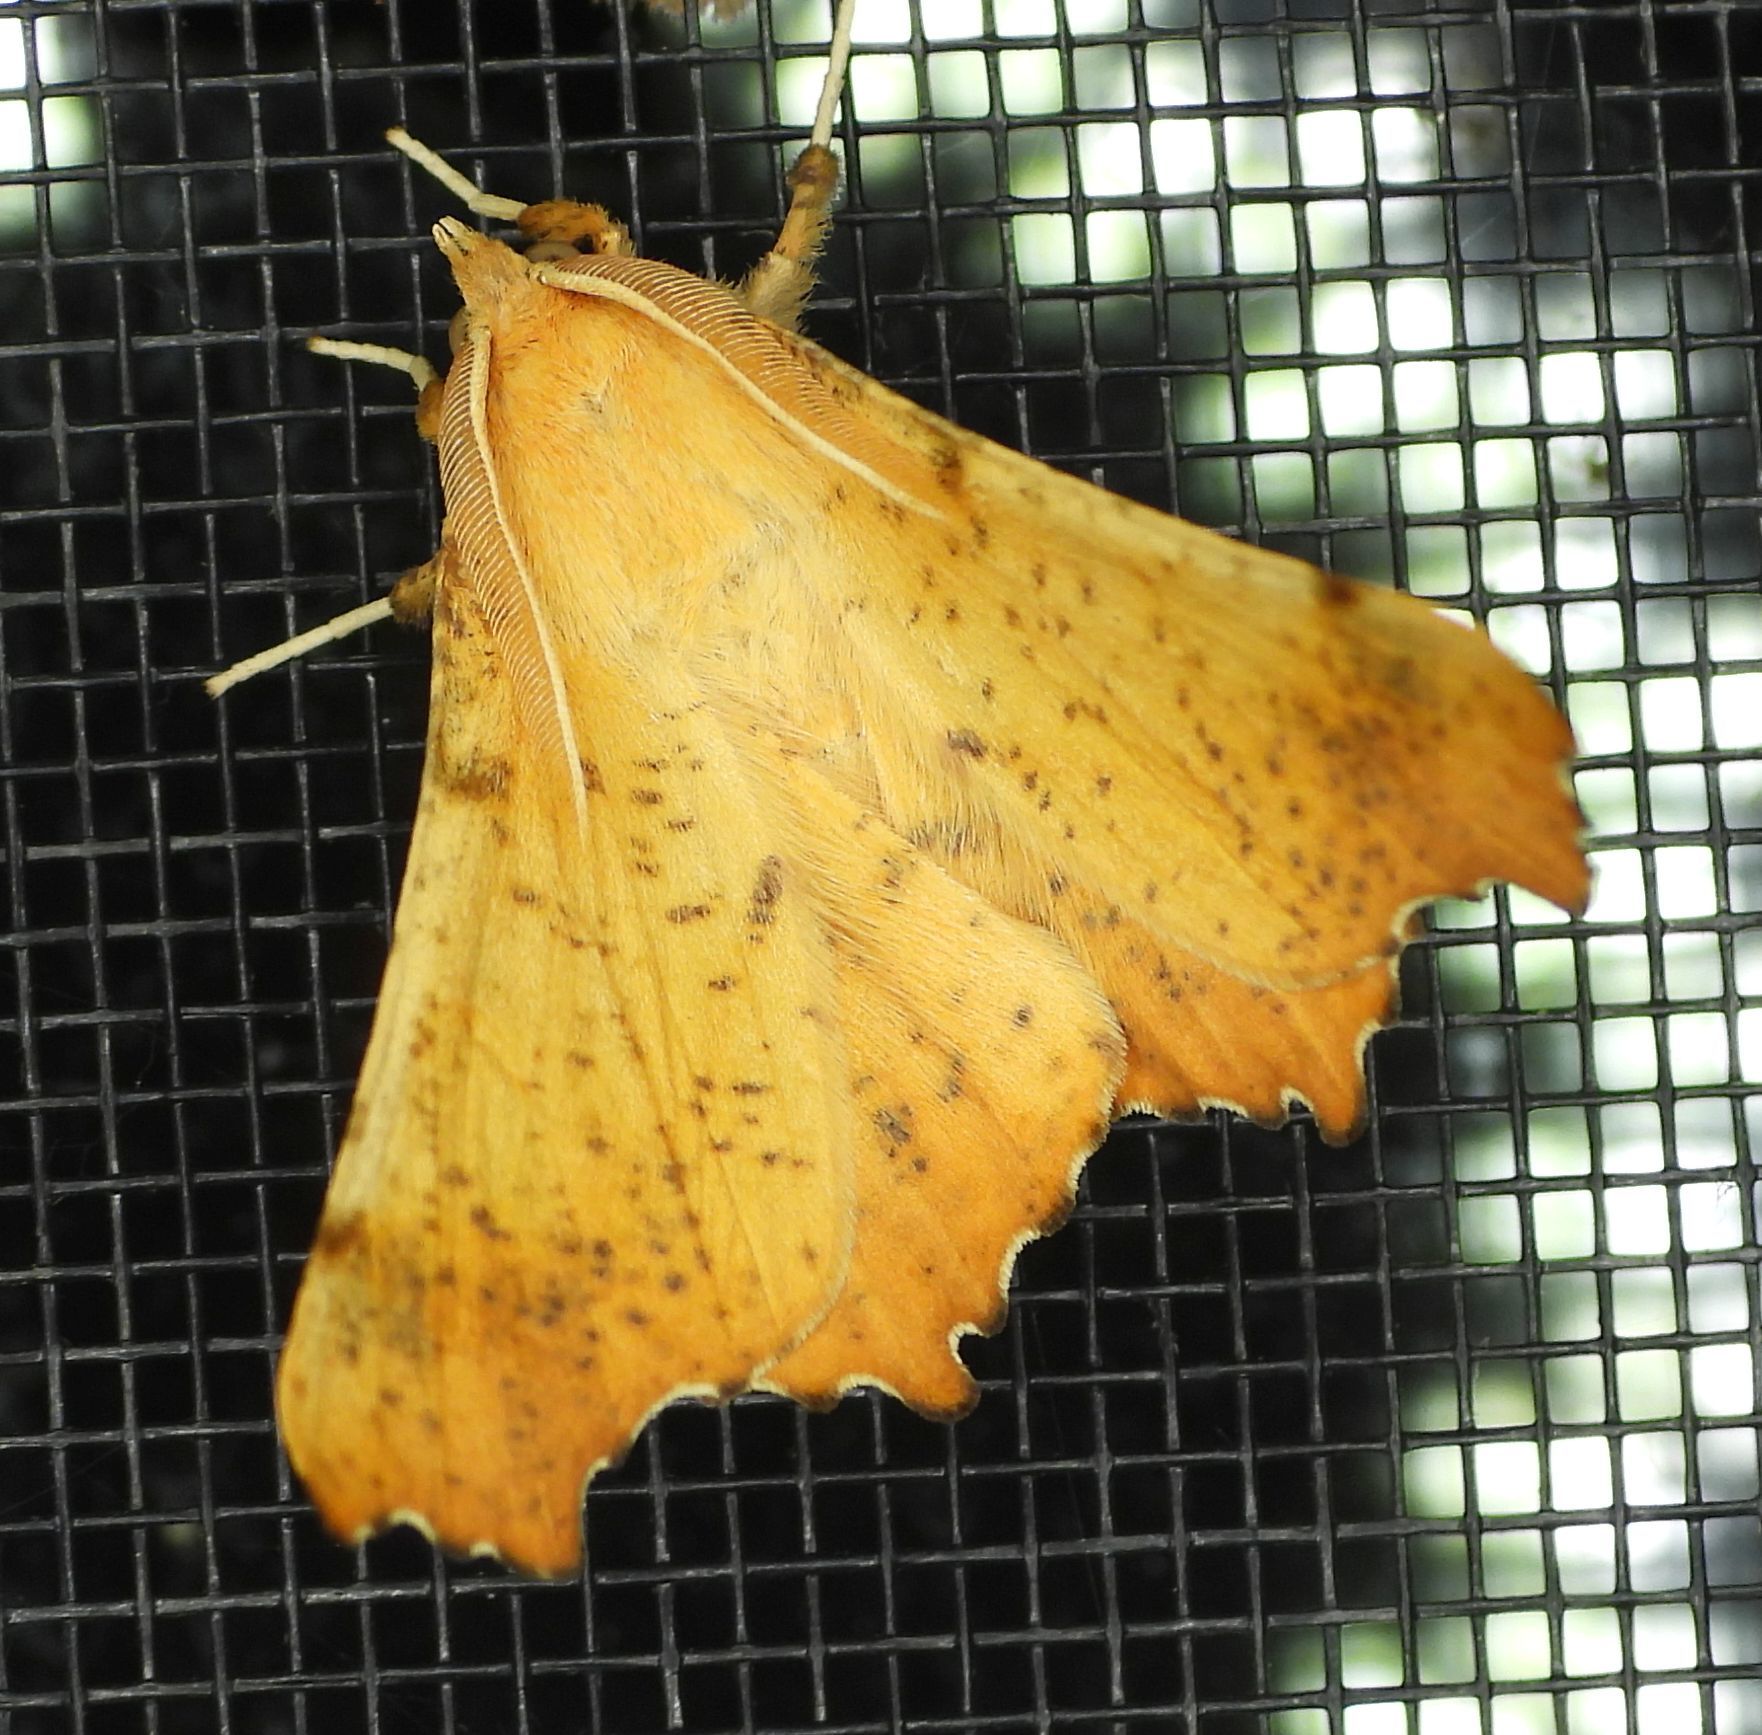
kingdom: Animalia
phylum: Arthropoda
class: Insecta
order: Lepidoptera
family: Geometridae
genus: Ennomos
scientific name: Ennomos magnaria
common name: Maple spanworm
